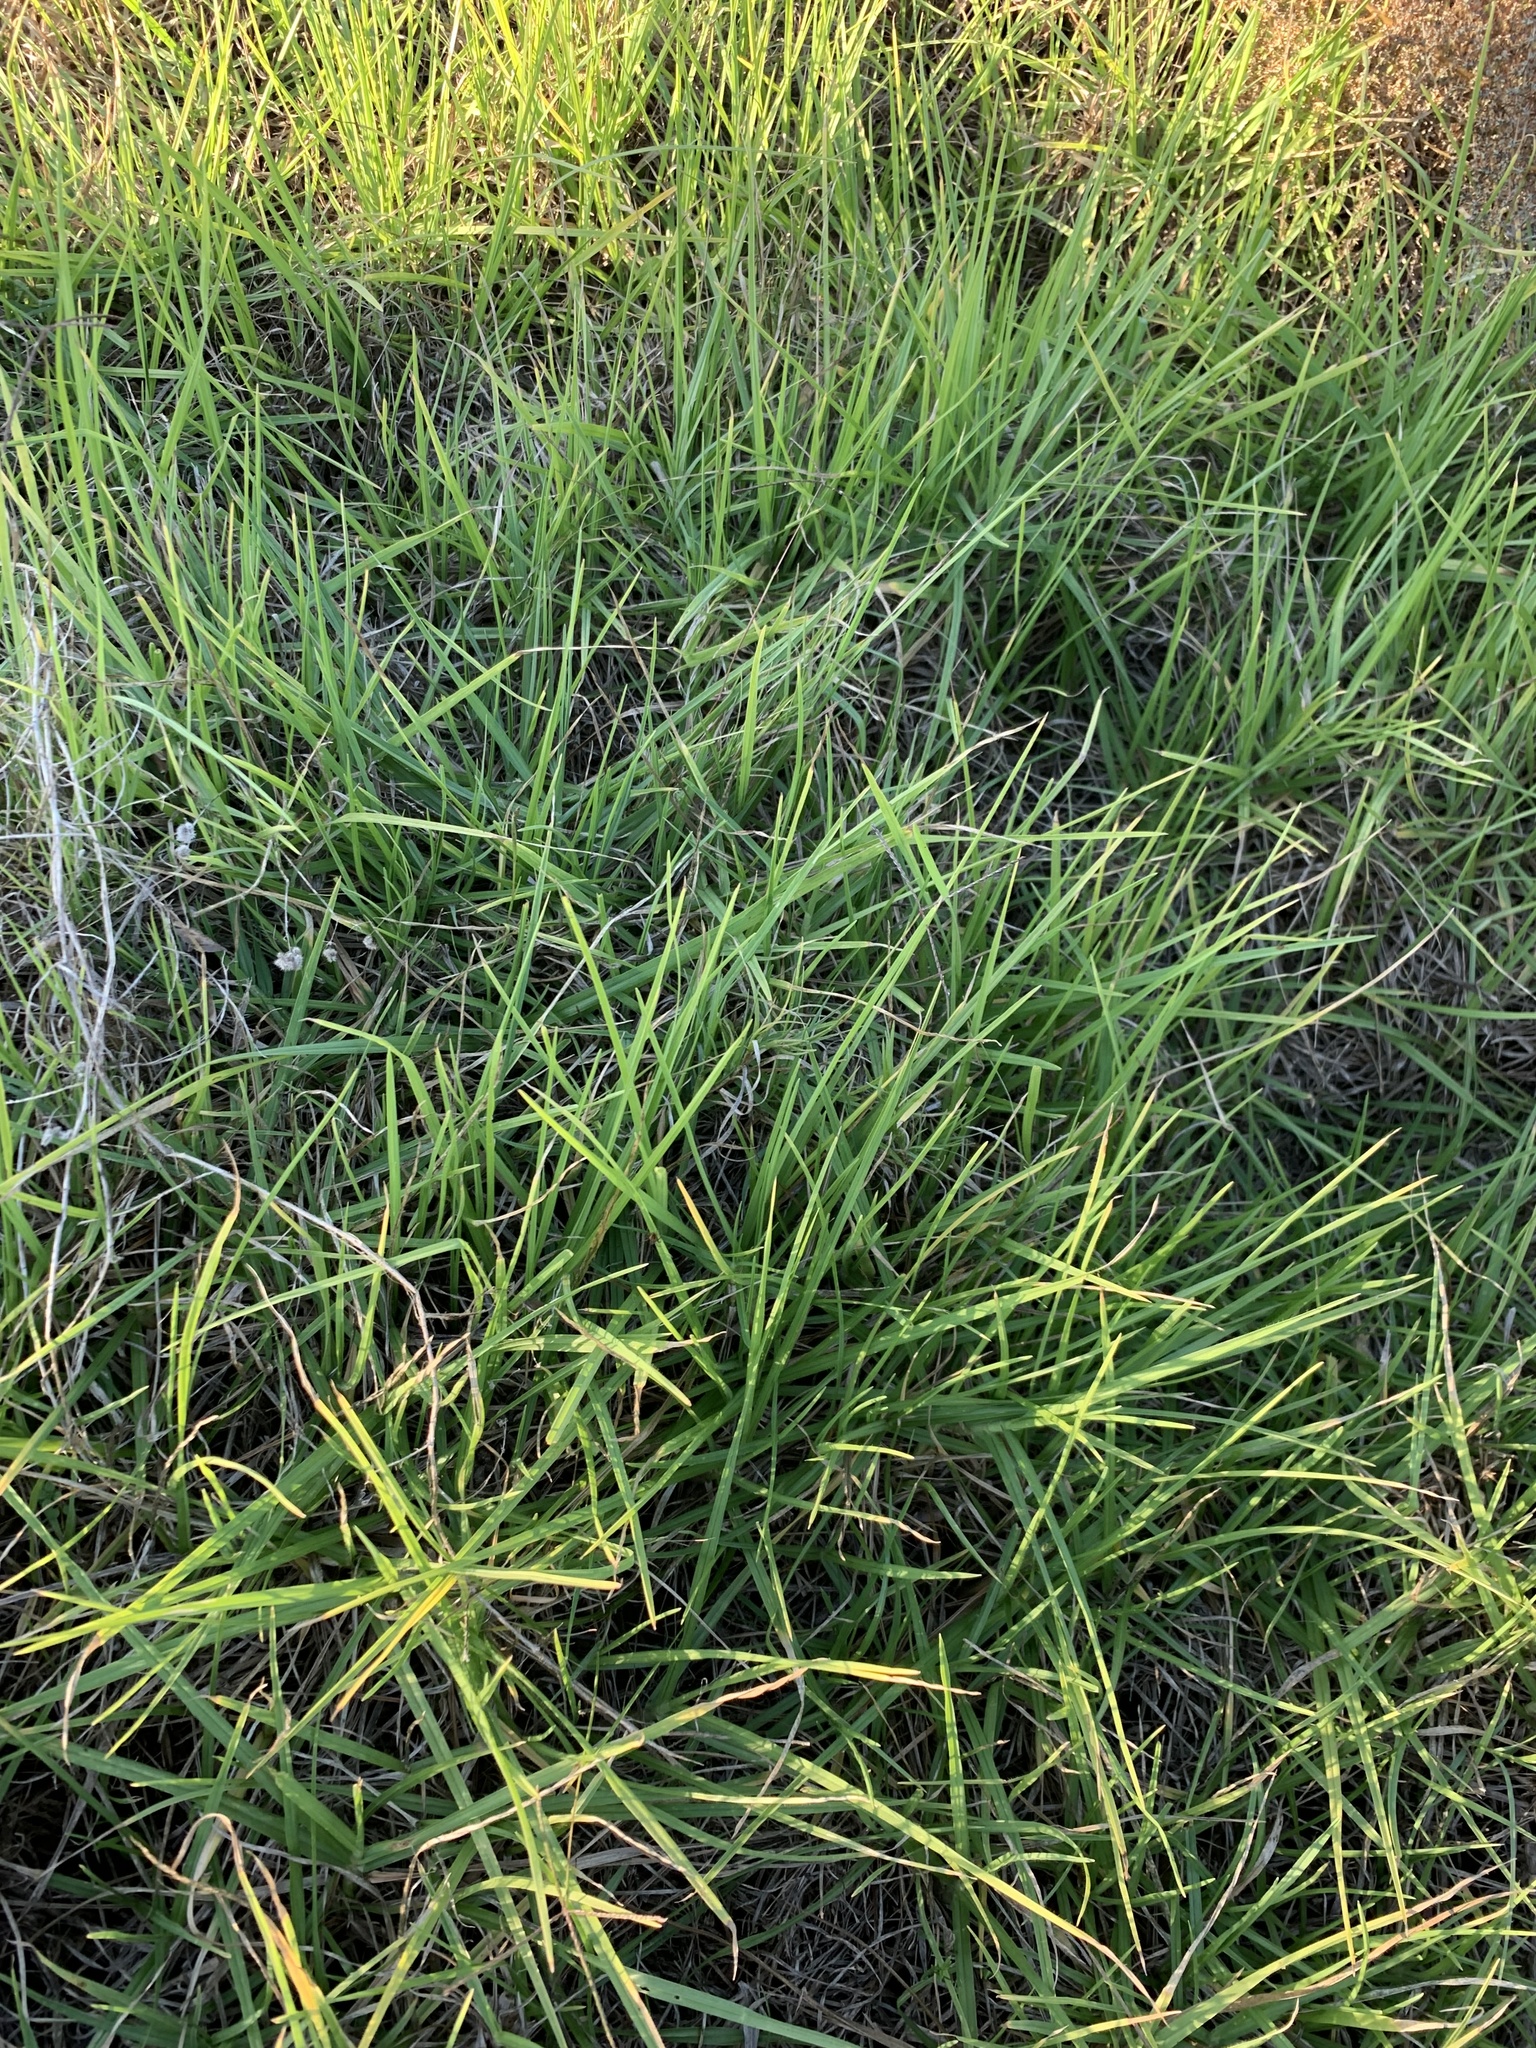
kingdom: Plantae
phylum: Tracheophyta
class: Liliopsida
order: Poales
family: Poaceae
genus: Cenchrus
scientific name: Cenchrus clandestinus
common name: Kikuyugrass
